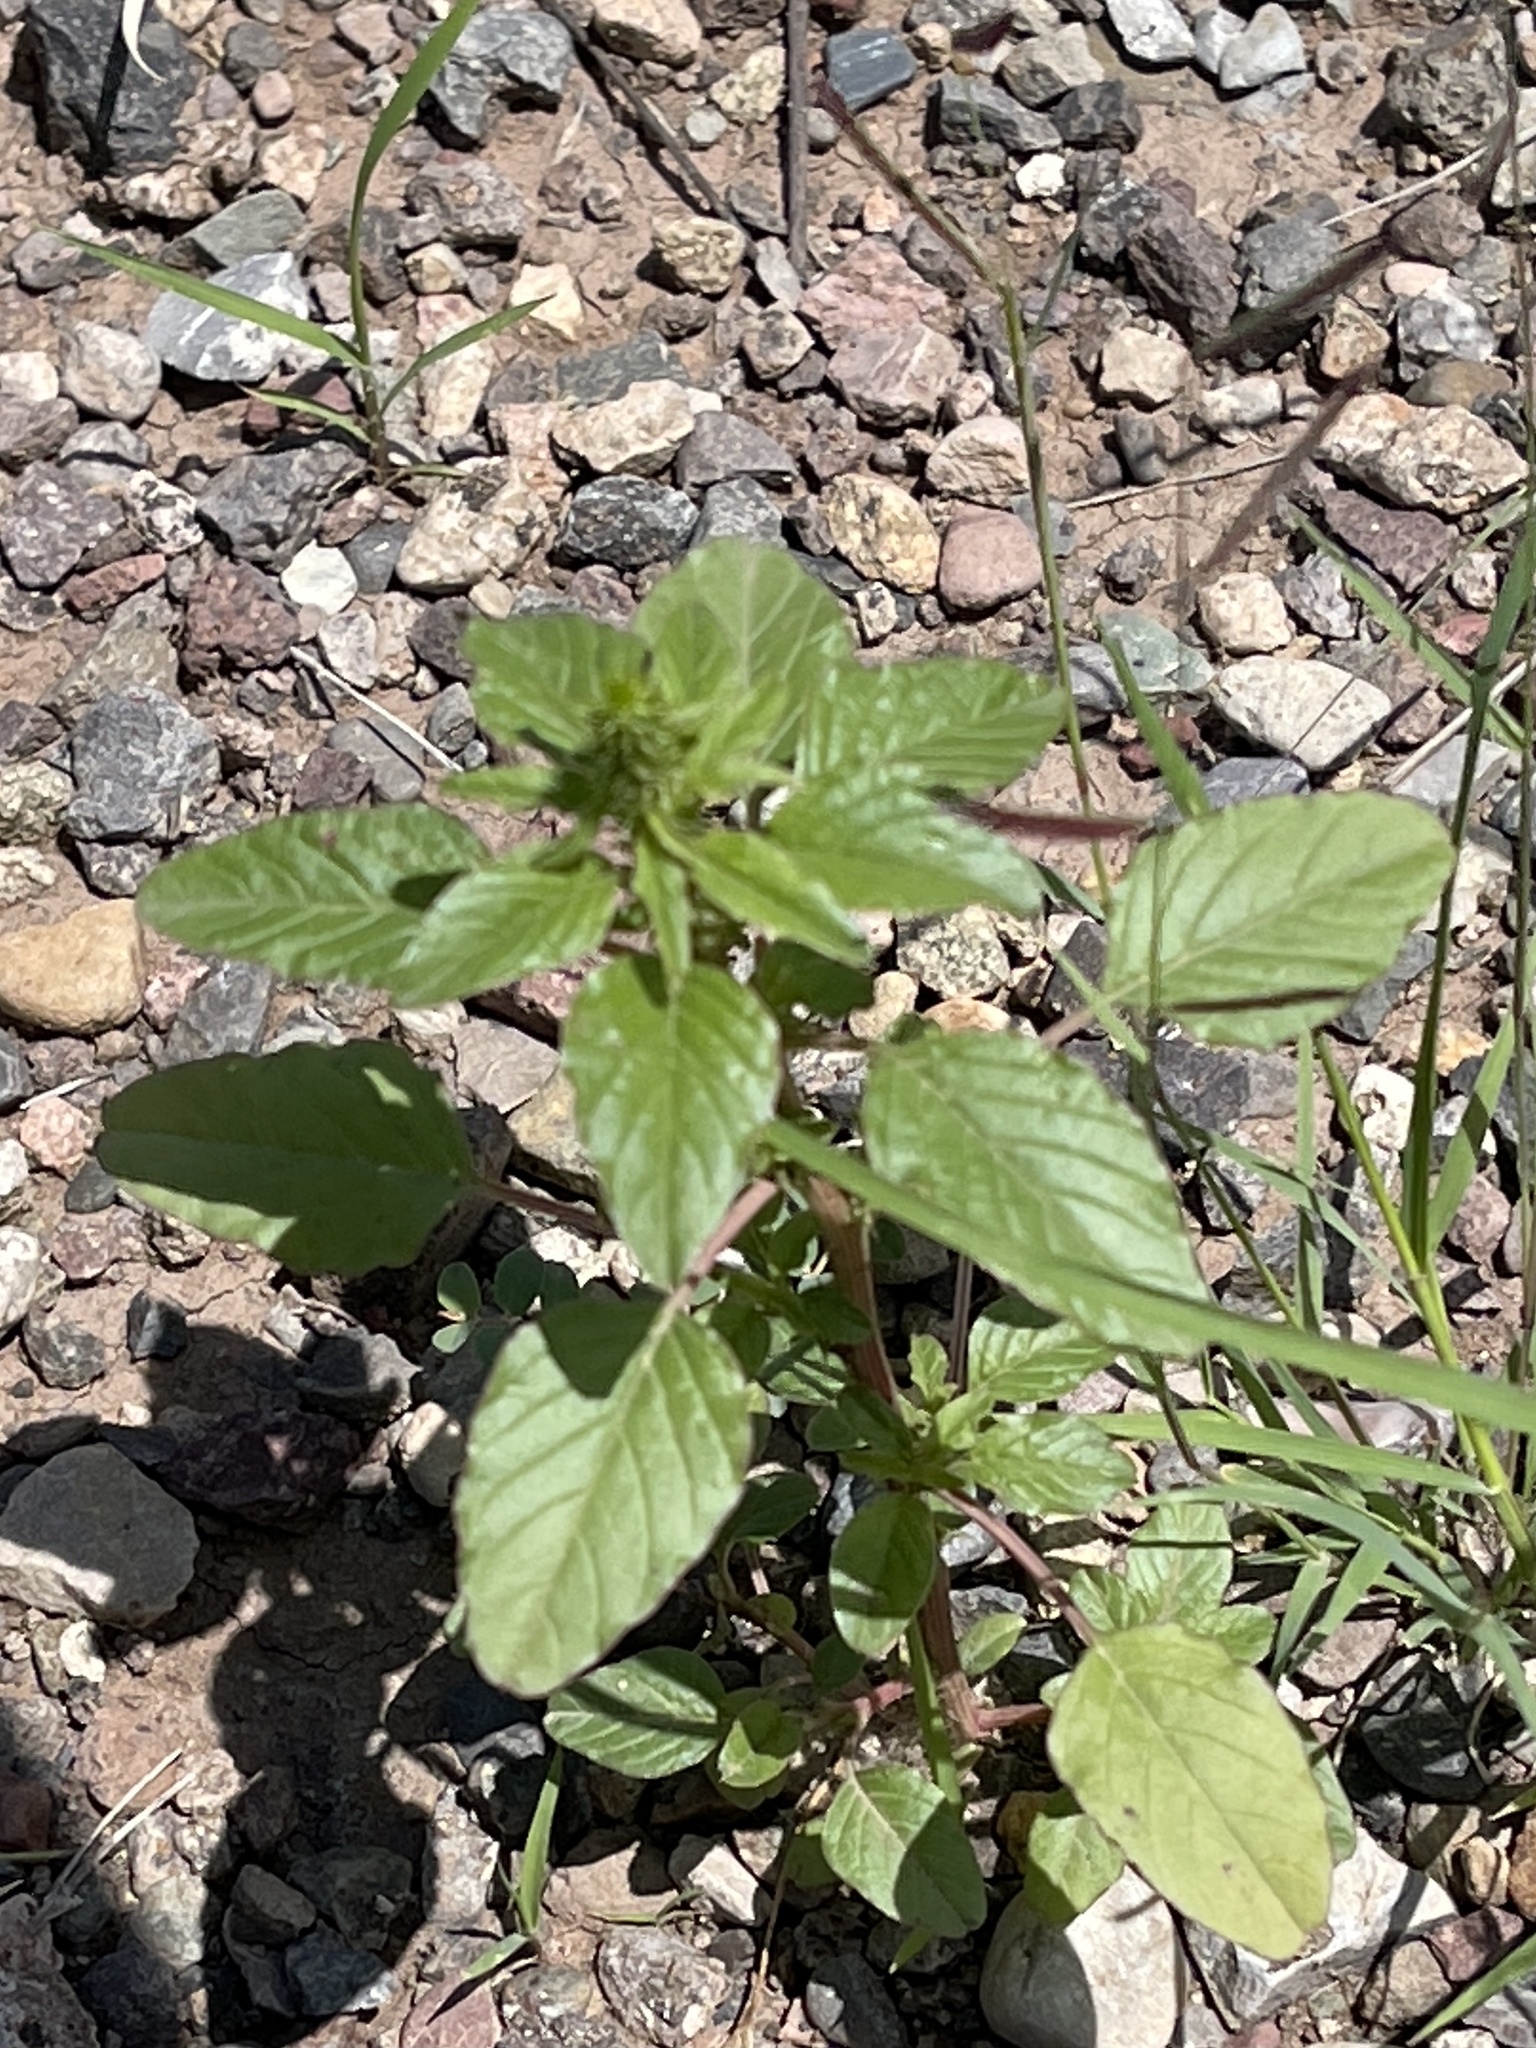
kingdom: Plantae
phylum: Tracheophyta
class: Magnoliopsida
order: Caryophyllales
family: Amaranthaceae
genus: Amaranthus
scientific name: Amaranthus palmeri
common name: Dioecious amaranth
